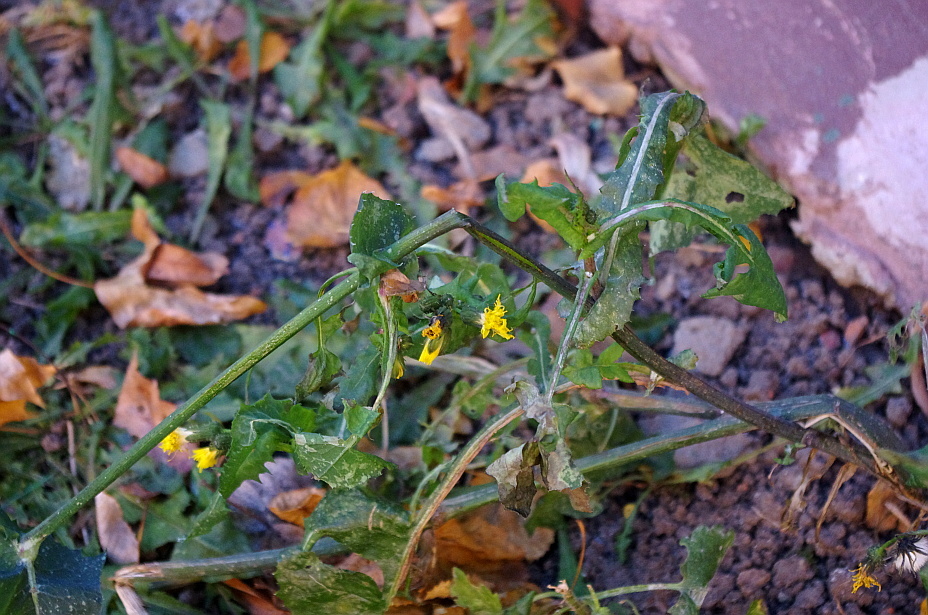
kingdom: Plantae
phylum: Tracheophyta
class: Magnoliopsida
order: Asterales
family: Asteraceae
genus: Sonchus
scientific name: Sonchus oleraceus
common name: Common sowthistle
